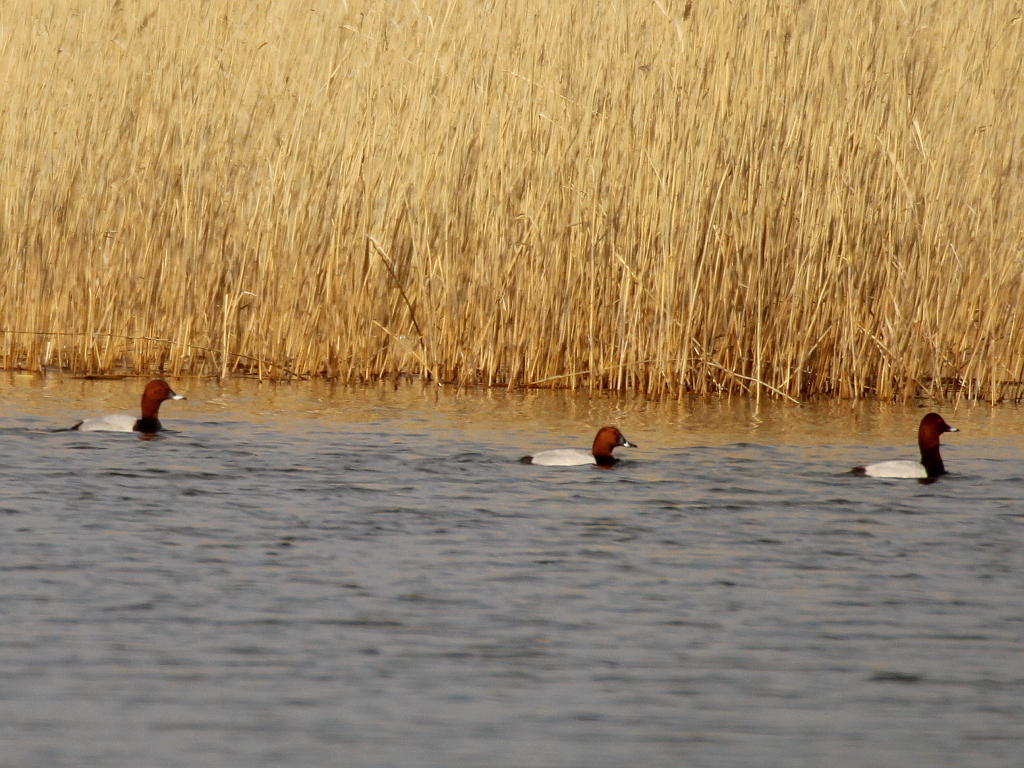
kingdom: Animalia
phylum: Chordata
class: Aves
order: Anseriformes
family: Anatidae
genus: Aythya
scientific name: Aythya ferina
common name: Common pochard
